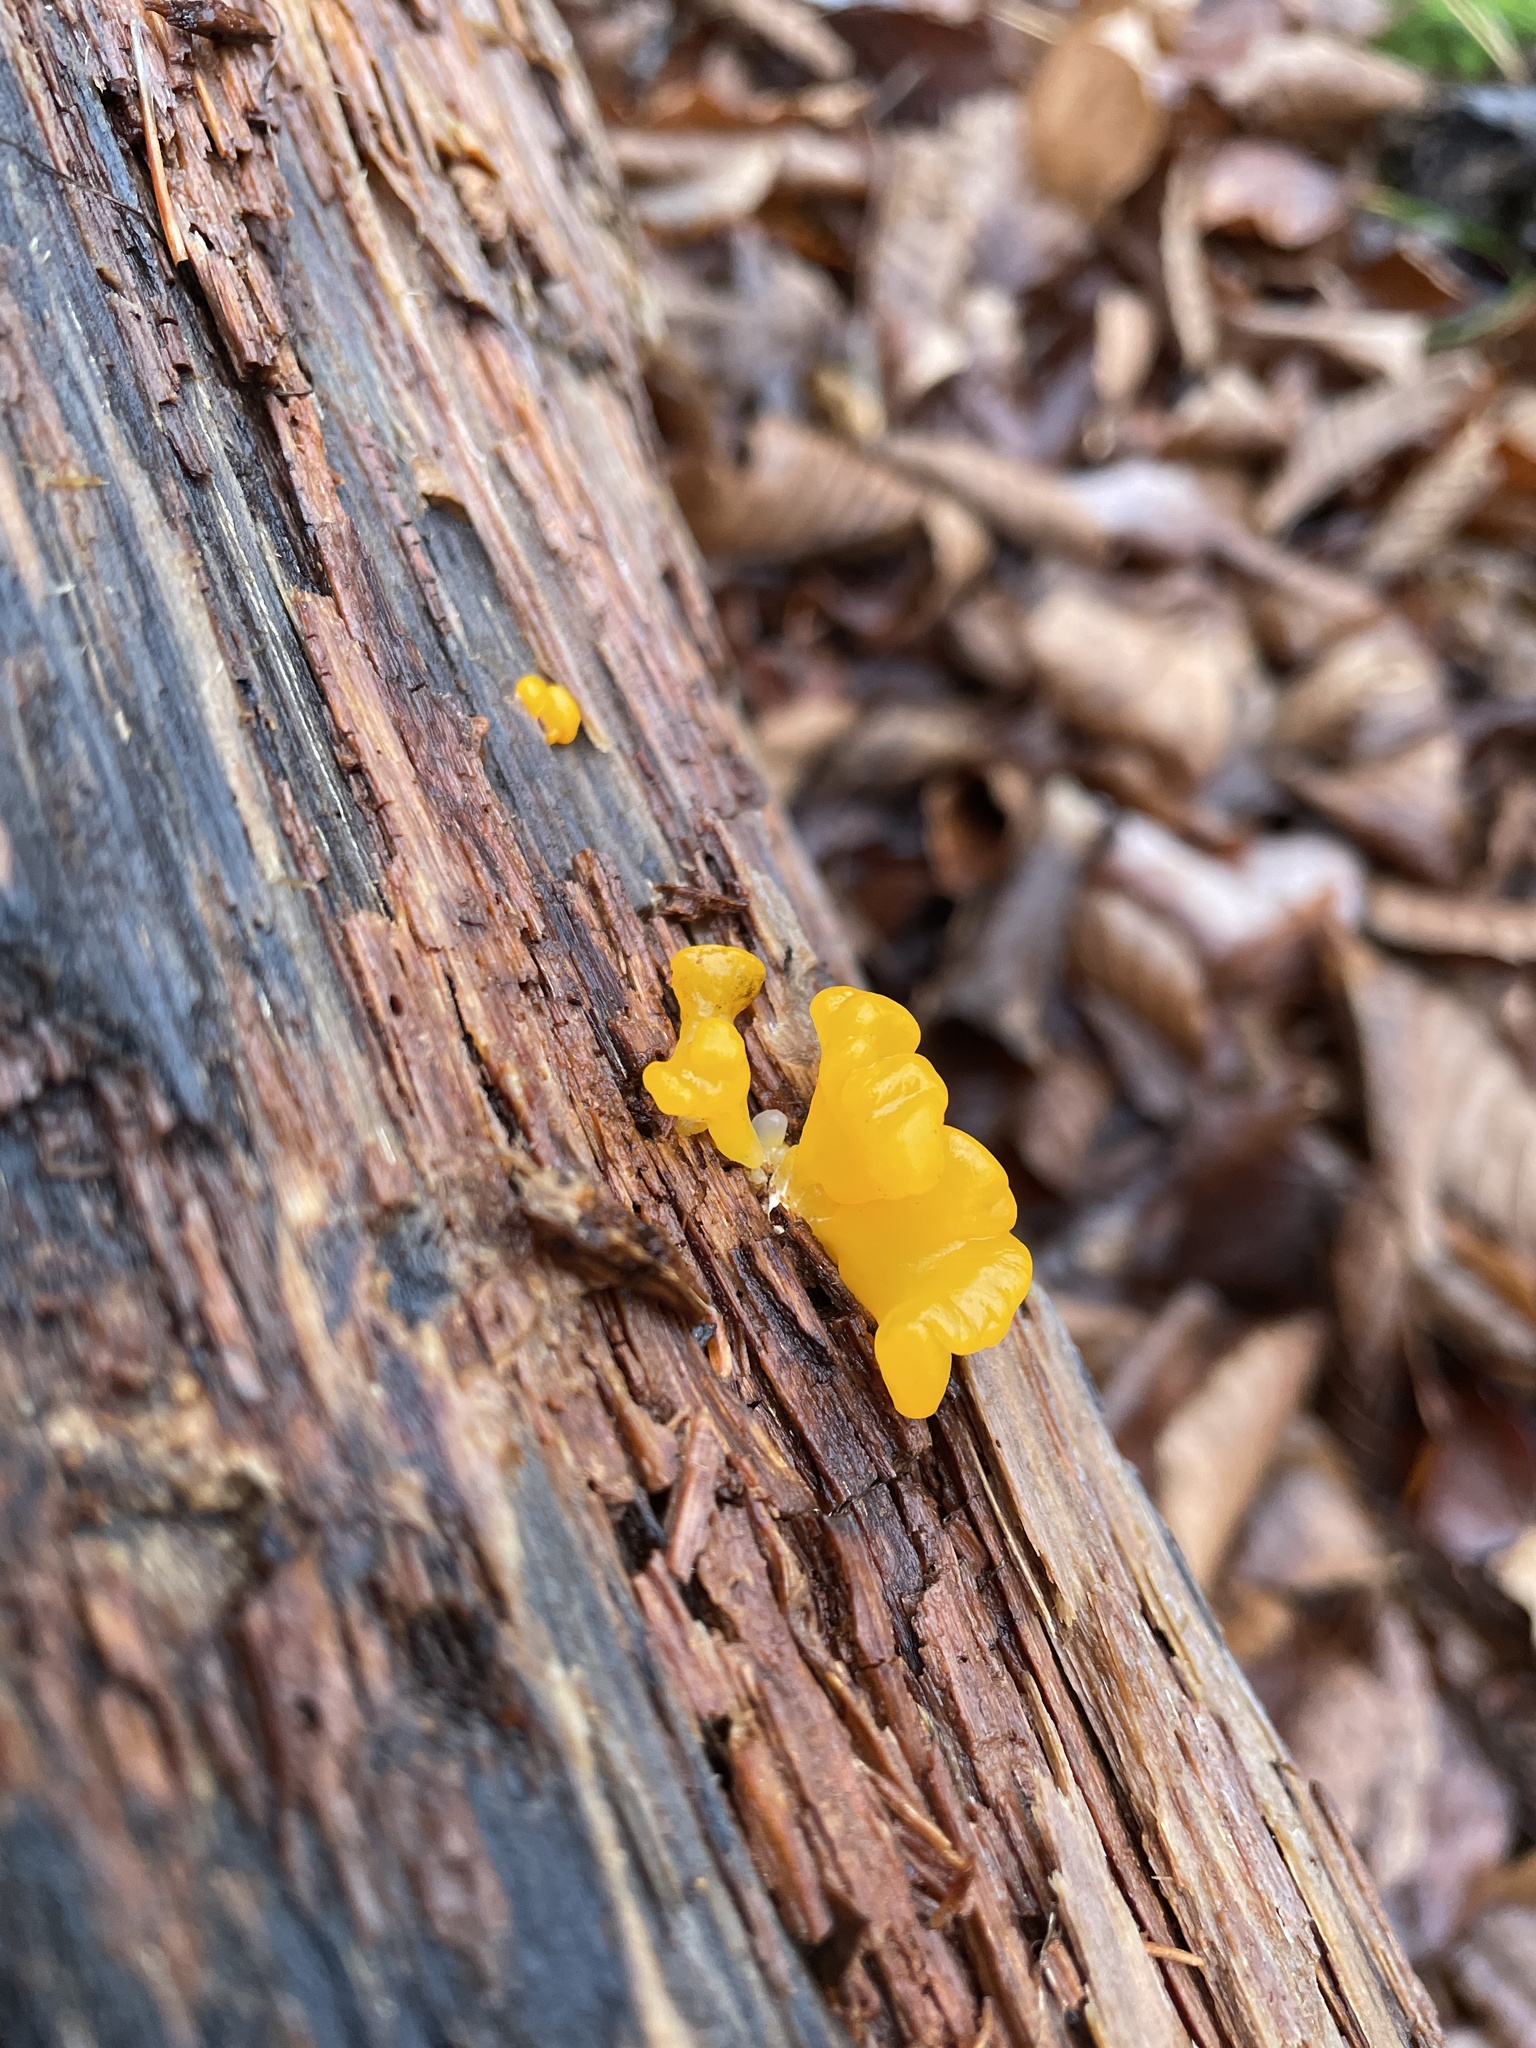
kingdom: Fungi
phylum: Basidiomycota
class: Dacrymycetes
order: Dacrymycetales
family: Dacrymycetaceae
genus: Dacrymyces
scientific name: Dacrymyces chrysospermus
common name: Orange jelly spot
